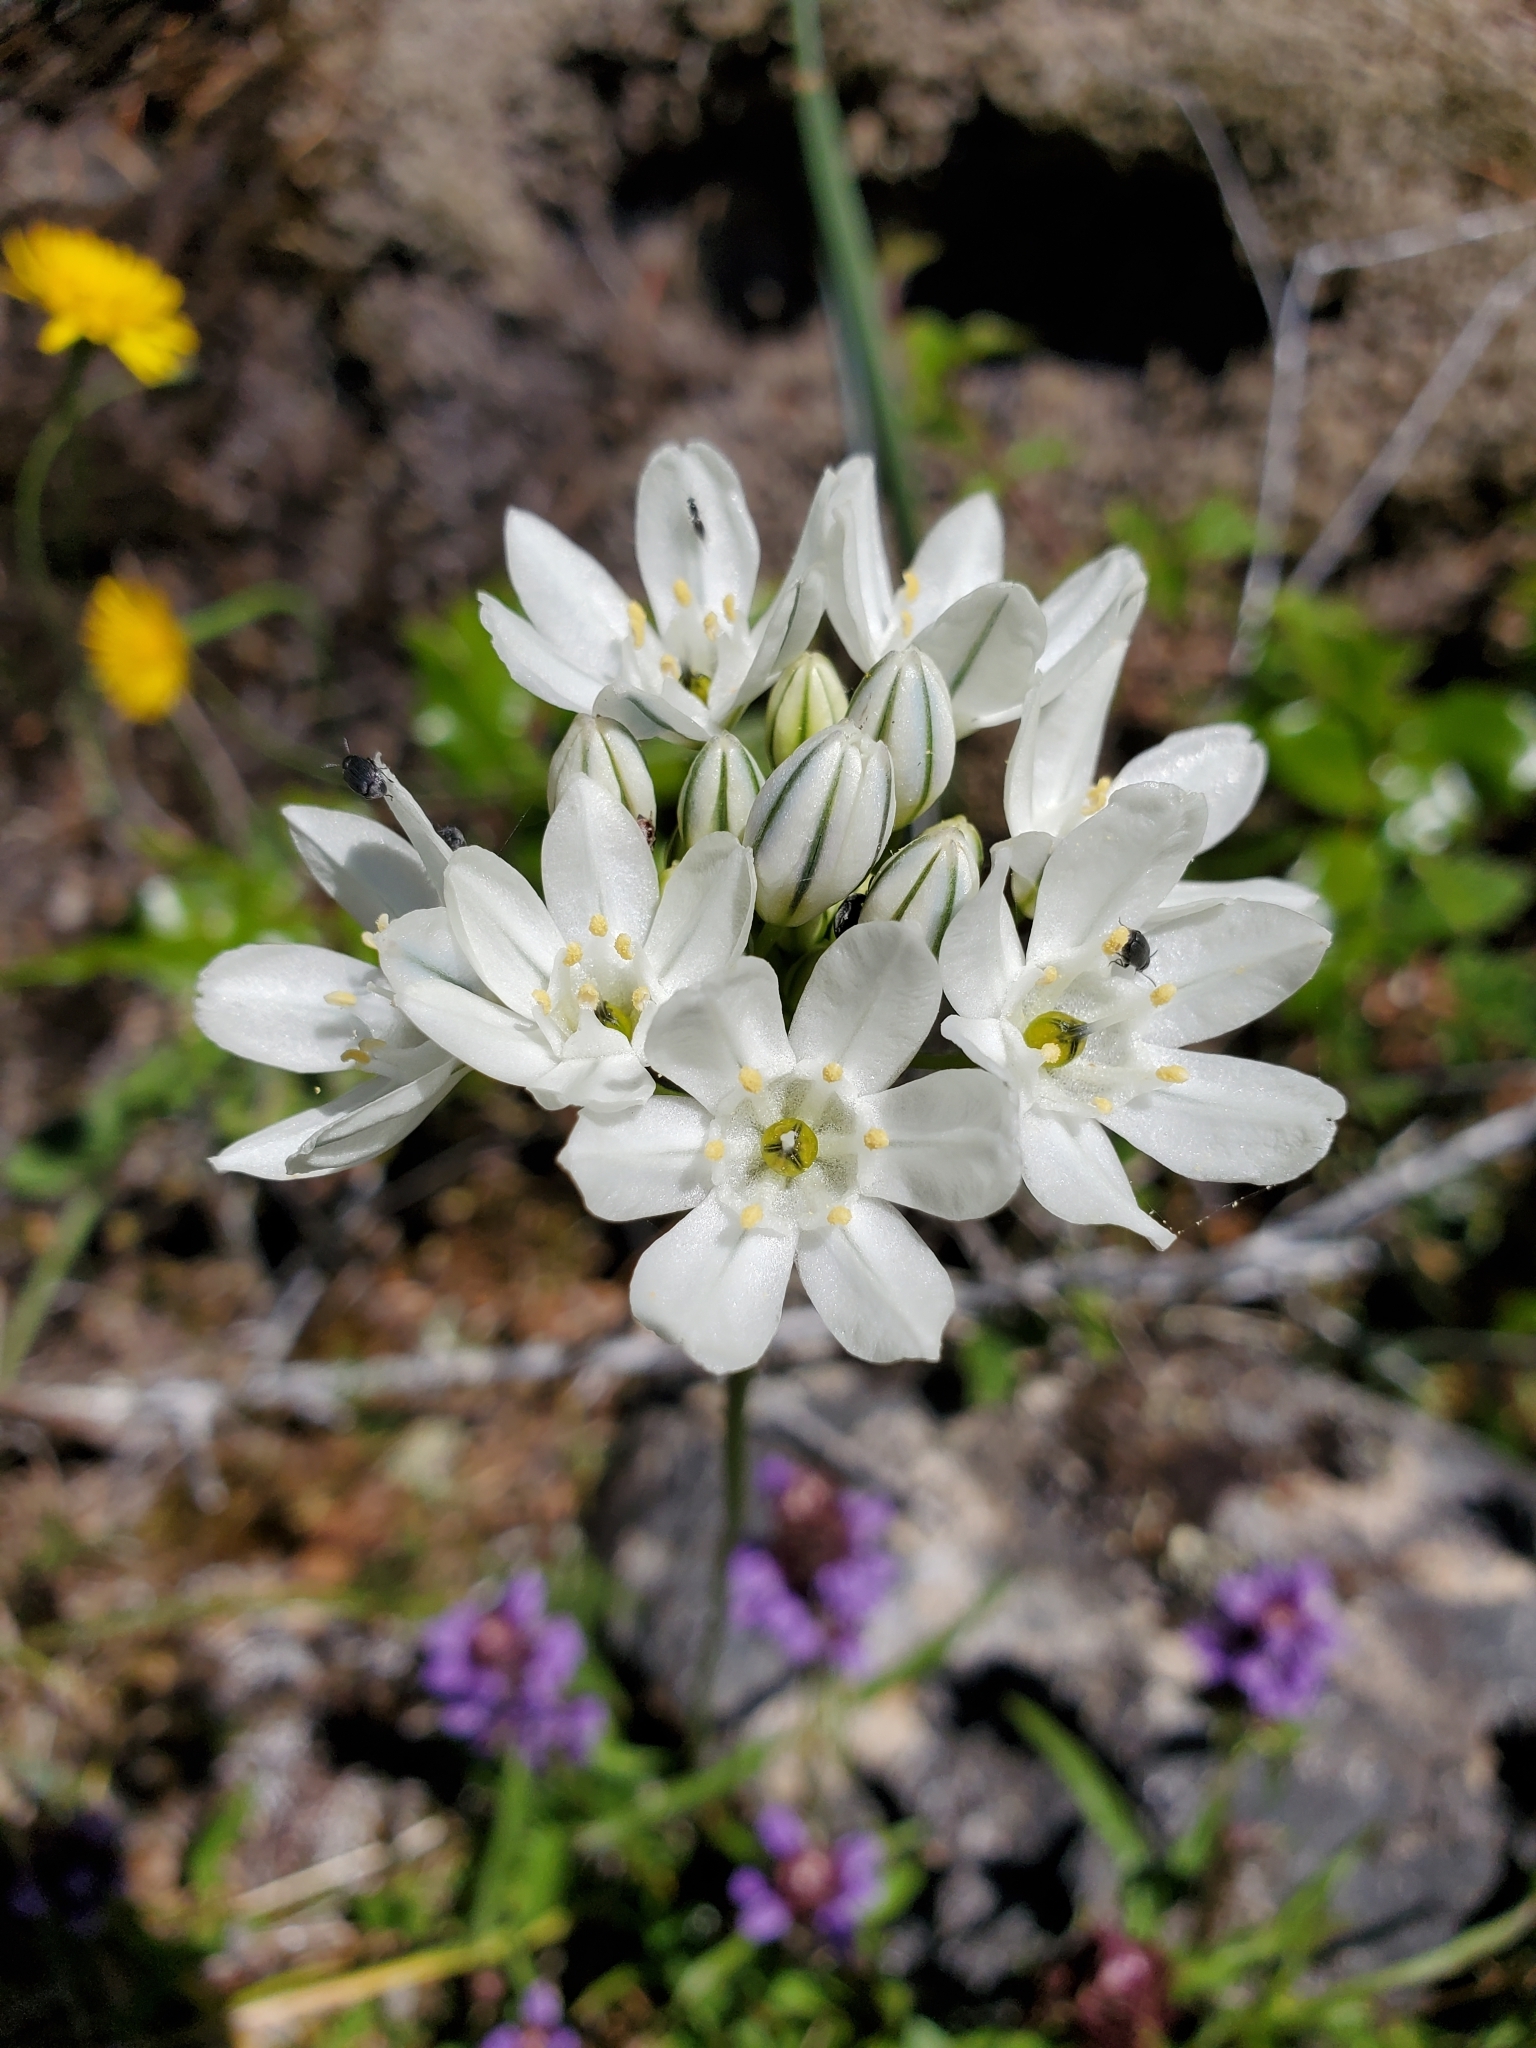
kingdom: Plantae
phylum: Tracheophyta
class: Liliopsida
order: Asparagales
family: Asparagaceae
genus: Triteleia
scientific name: Triteleia hyacinthina
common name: White brodiaea
